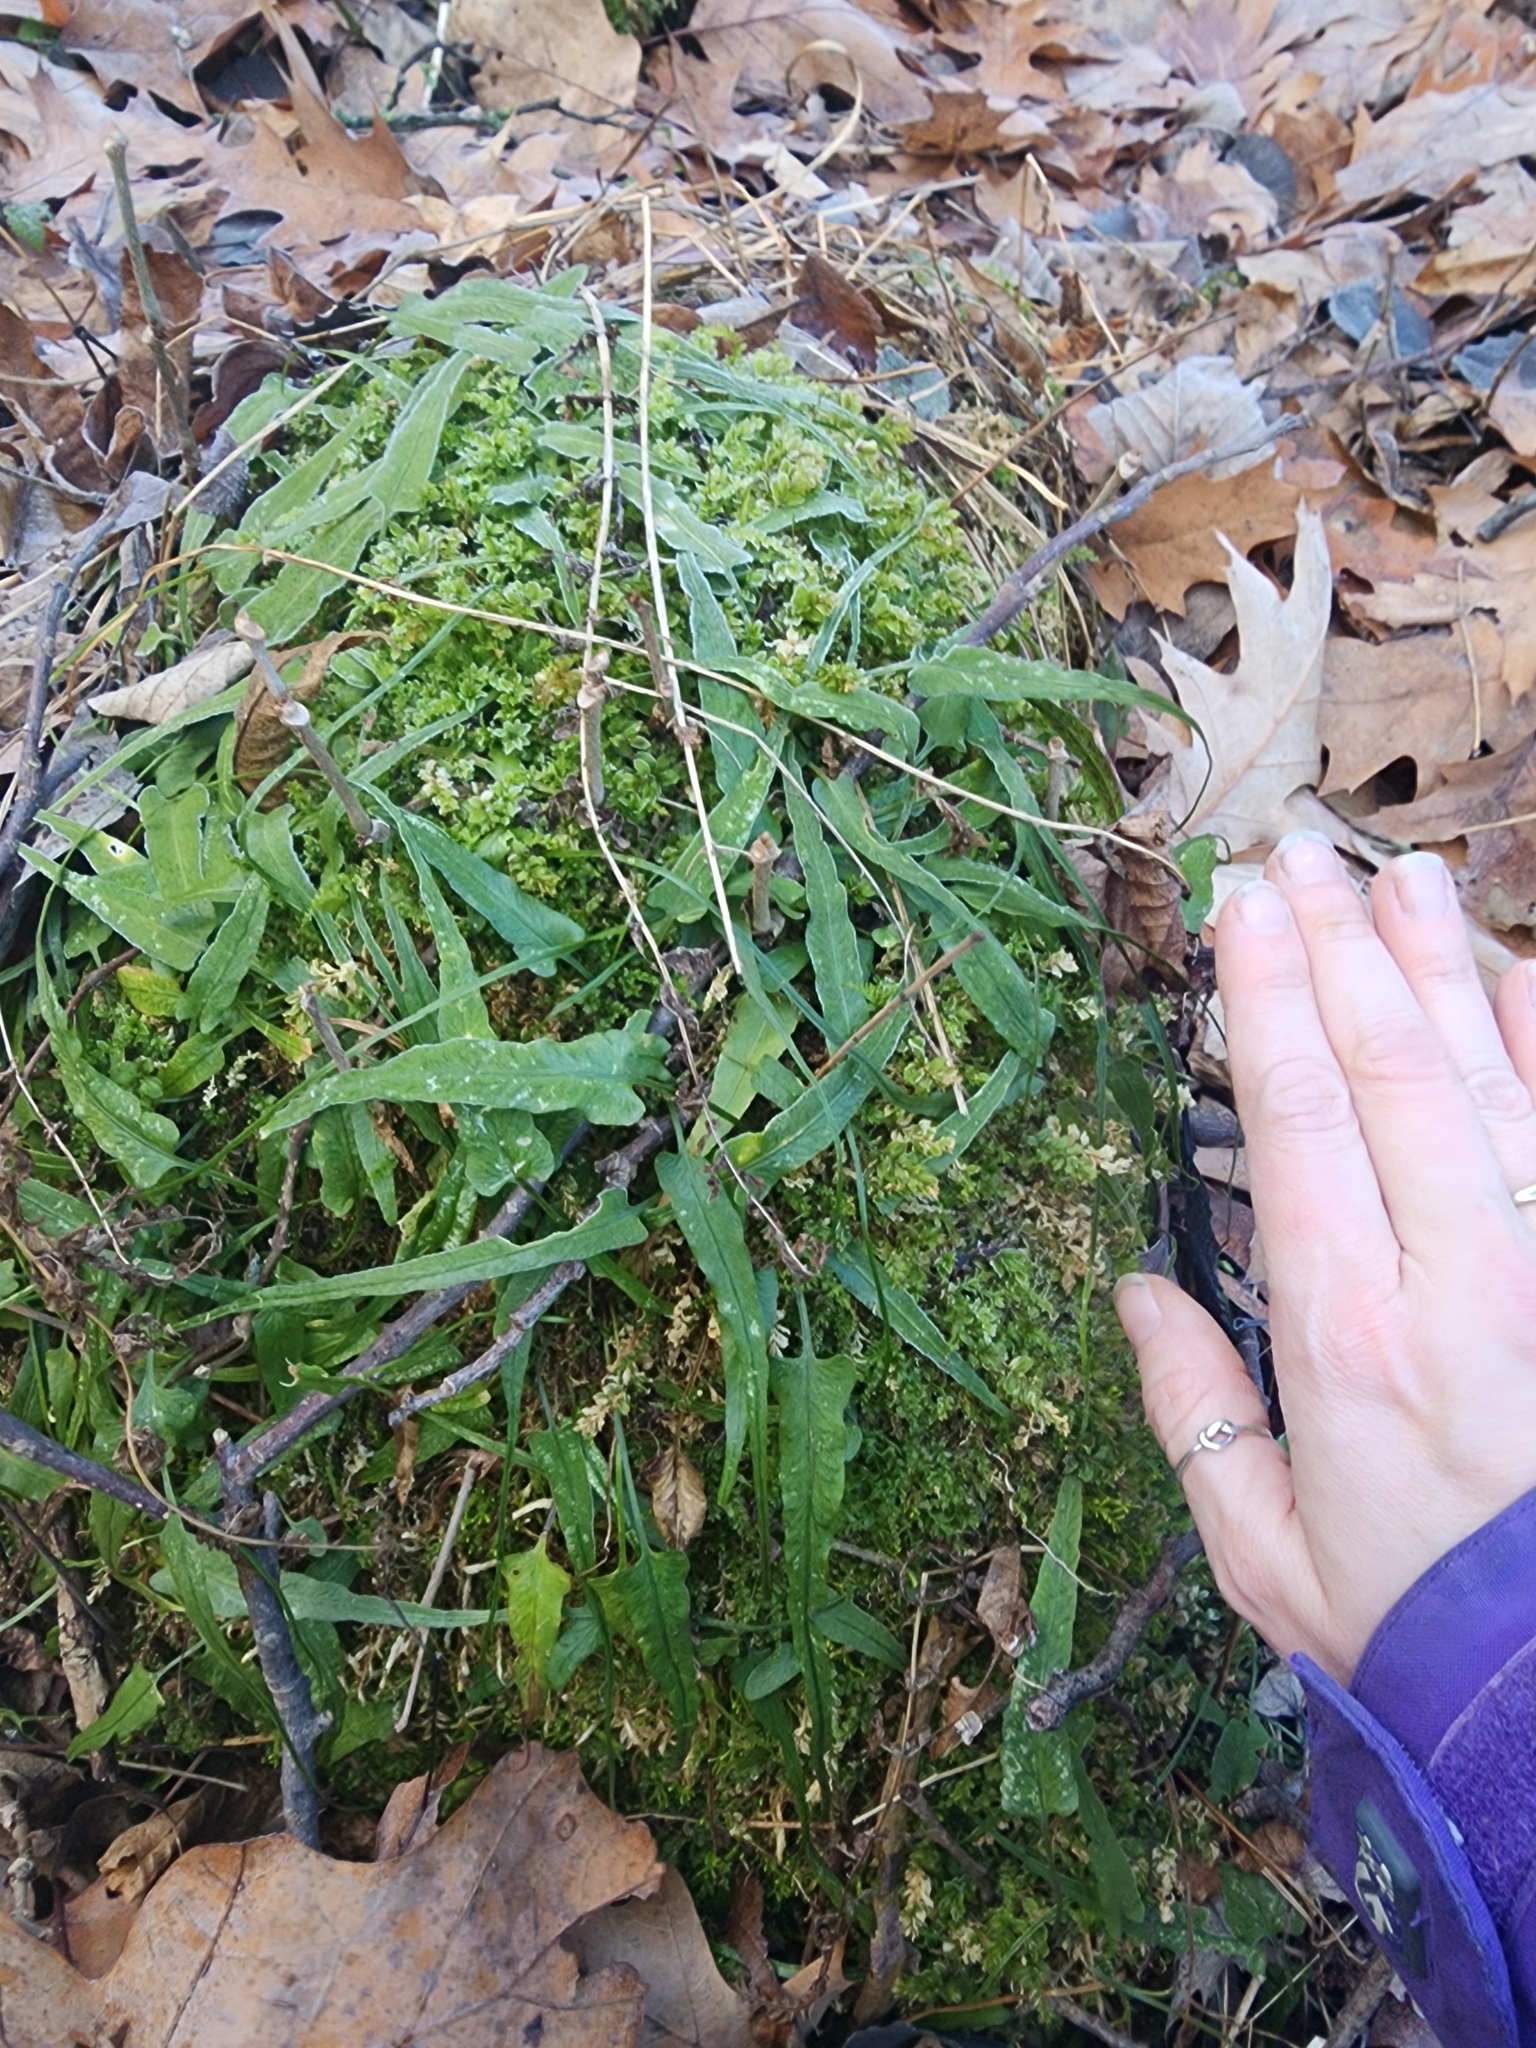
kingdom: Plantae
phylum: Tracheophyta
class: Polypodiopsida
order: Polypodiales
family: Aspleniaceae
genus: Asplenium
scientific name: Asplenium rhizophyllum
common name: Walking fern
